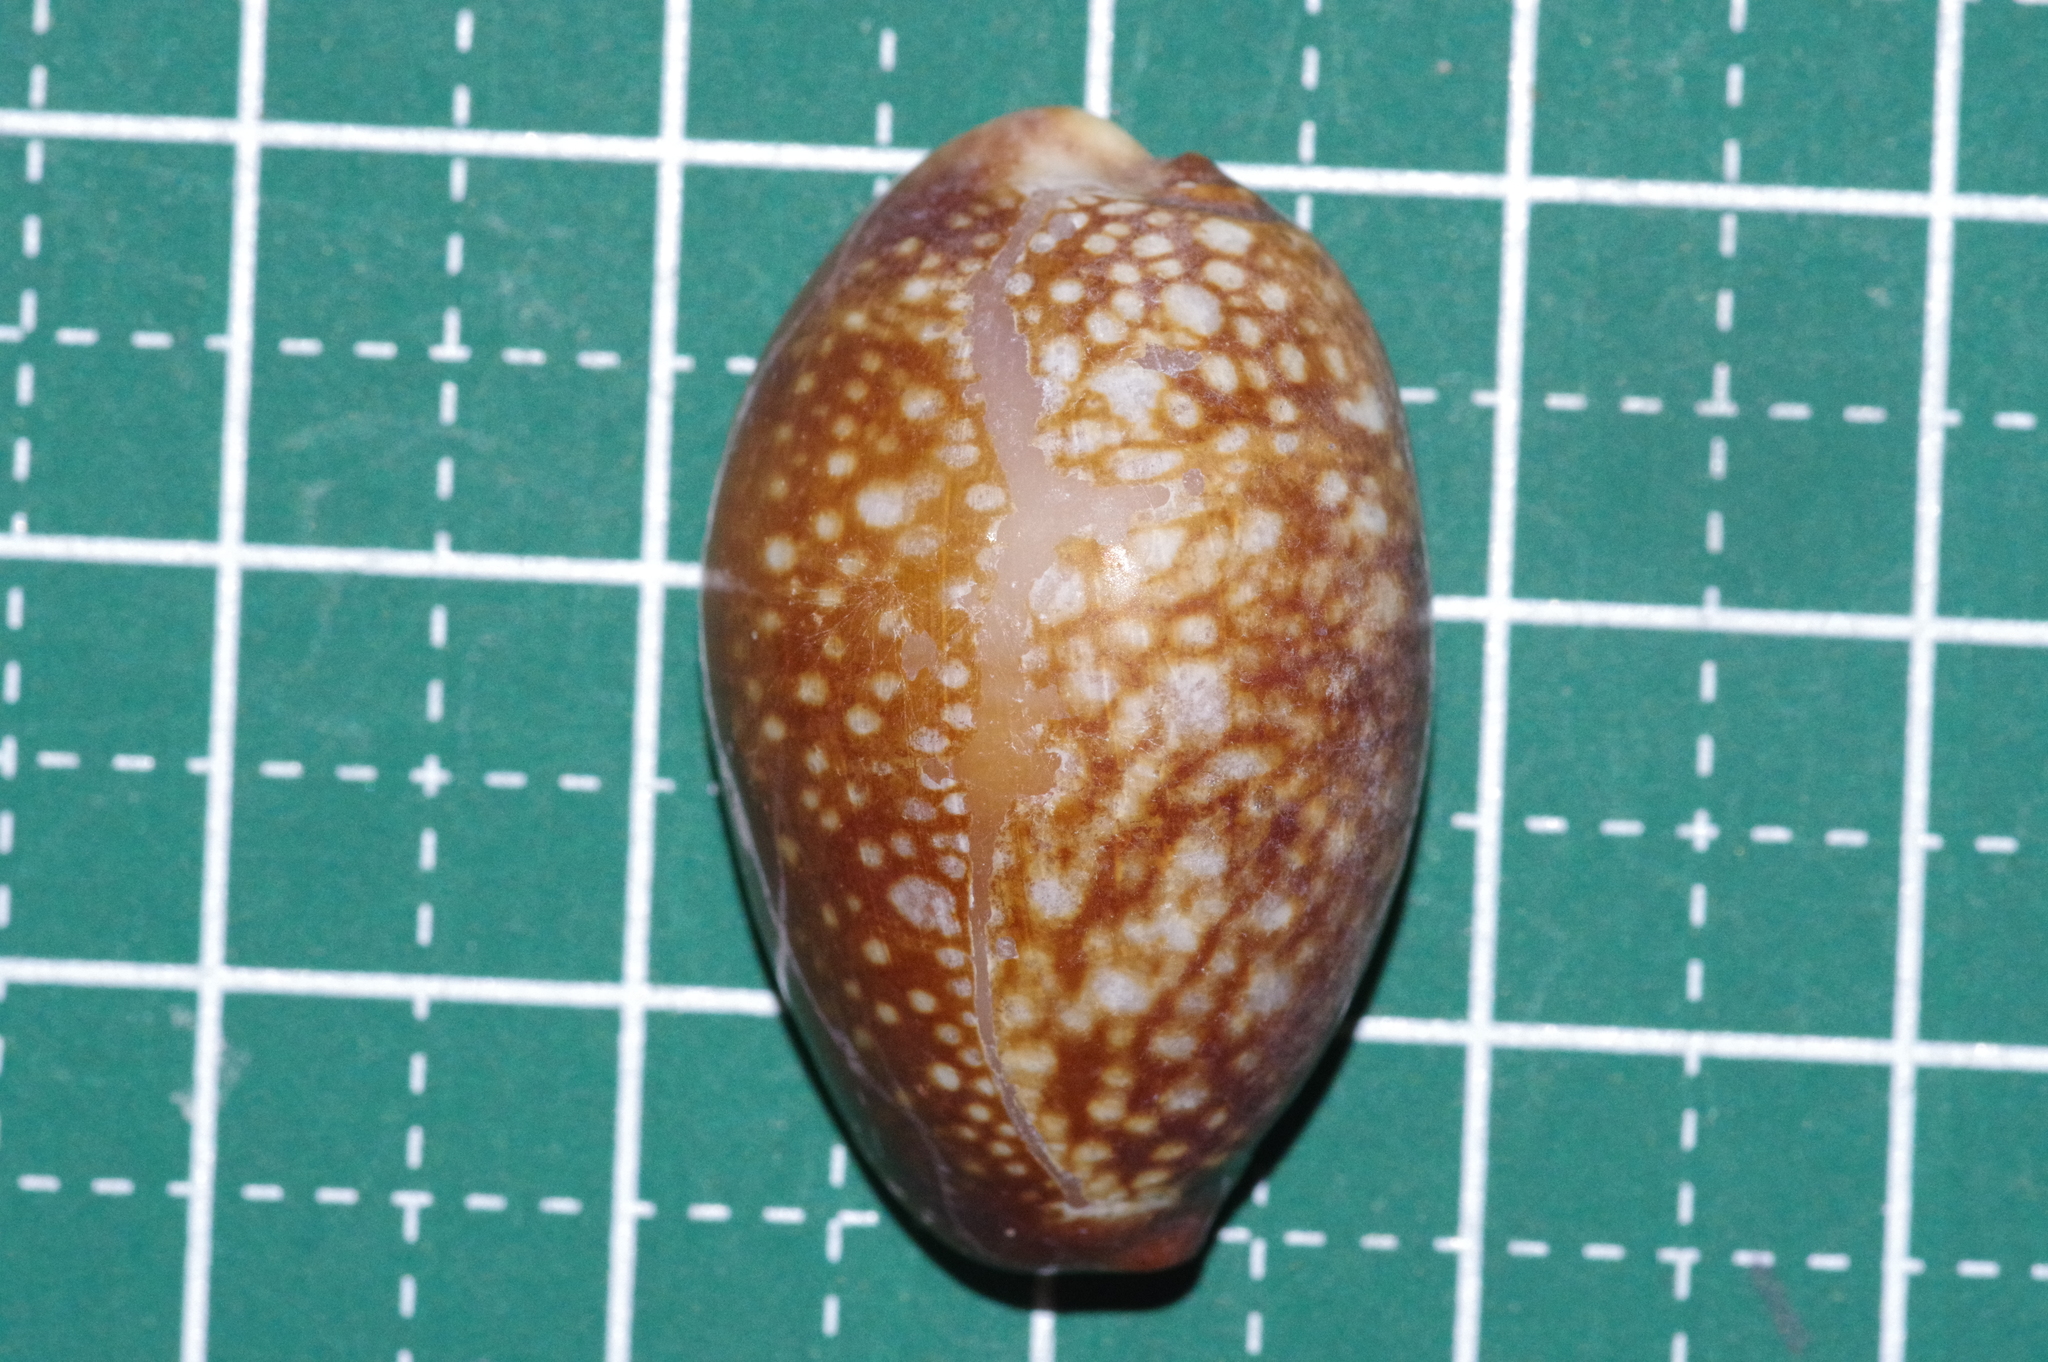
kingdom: Animalia
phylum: Mollusca
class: Gastropoda
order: Littorinimorpha
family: Cypraeidae
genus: Monetaria
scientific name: Monetaria caputserpentis
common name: Serpent's head cowrie
